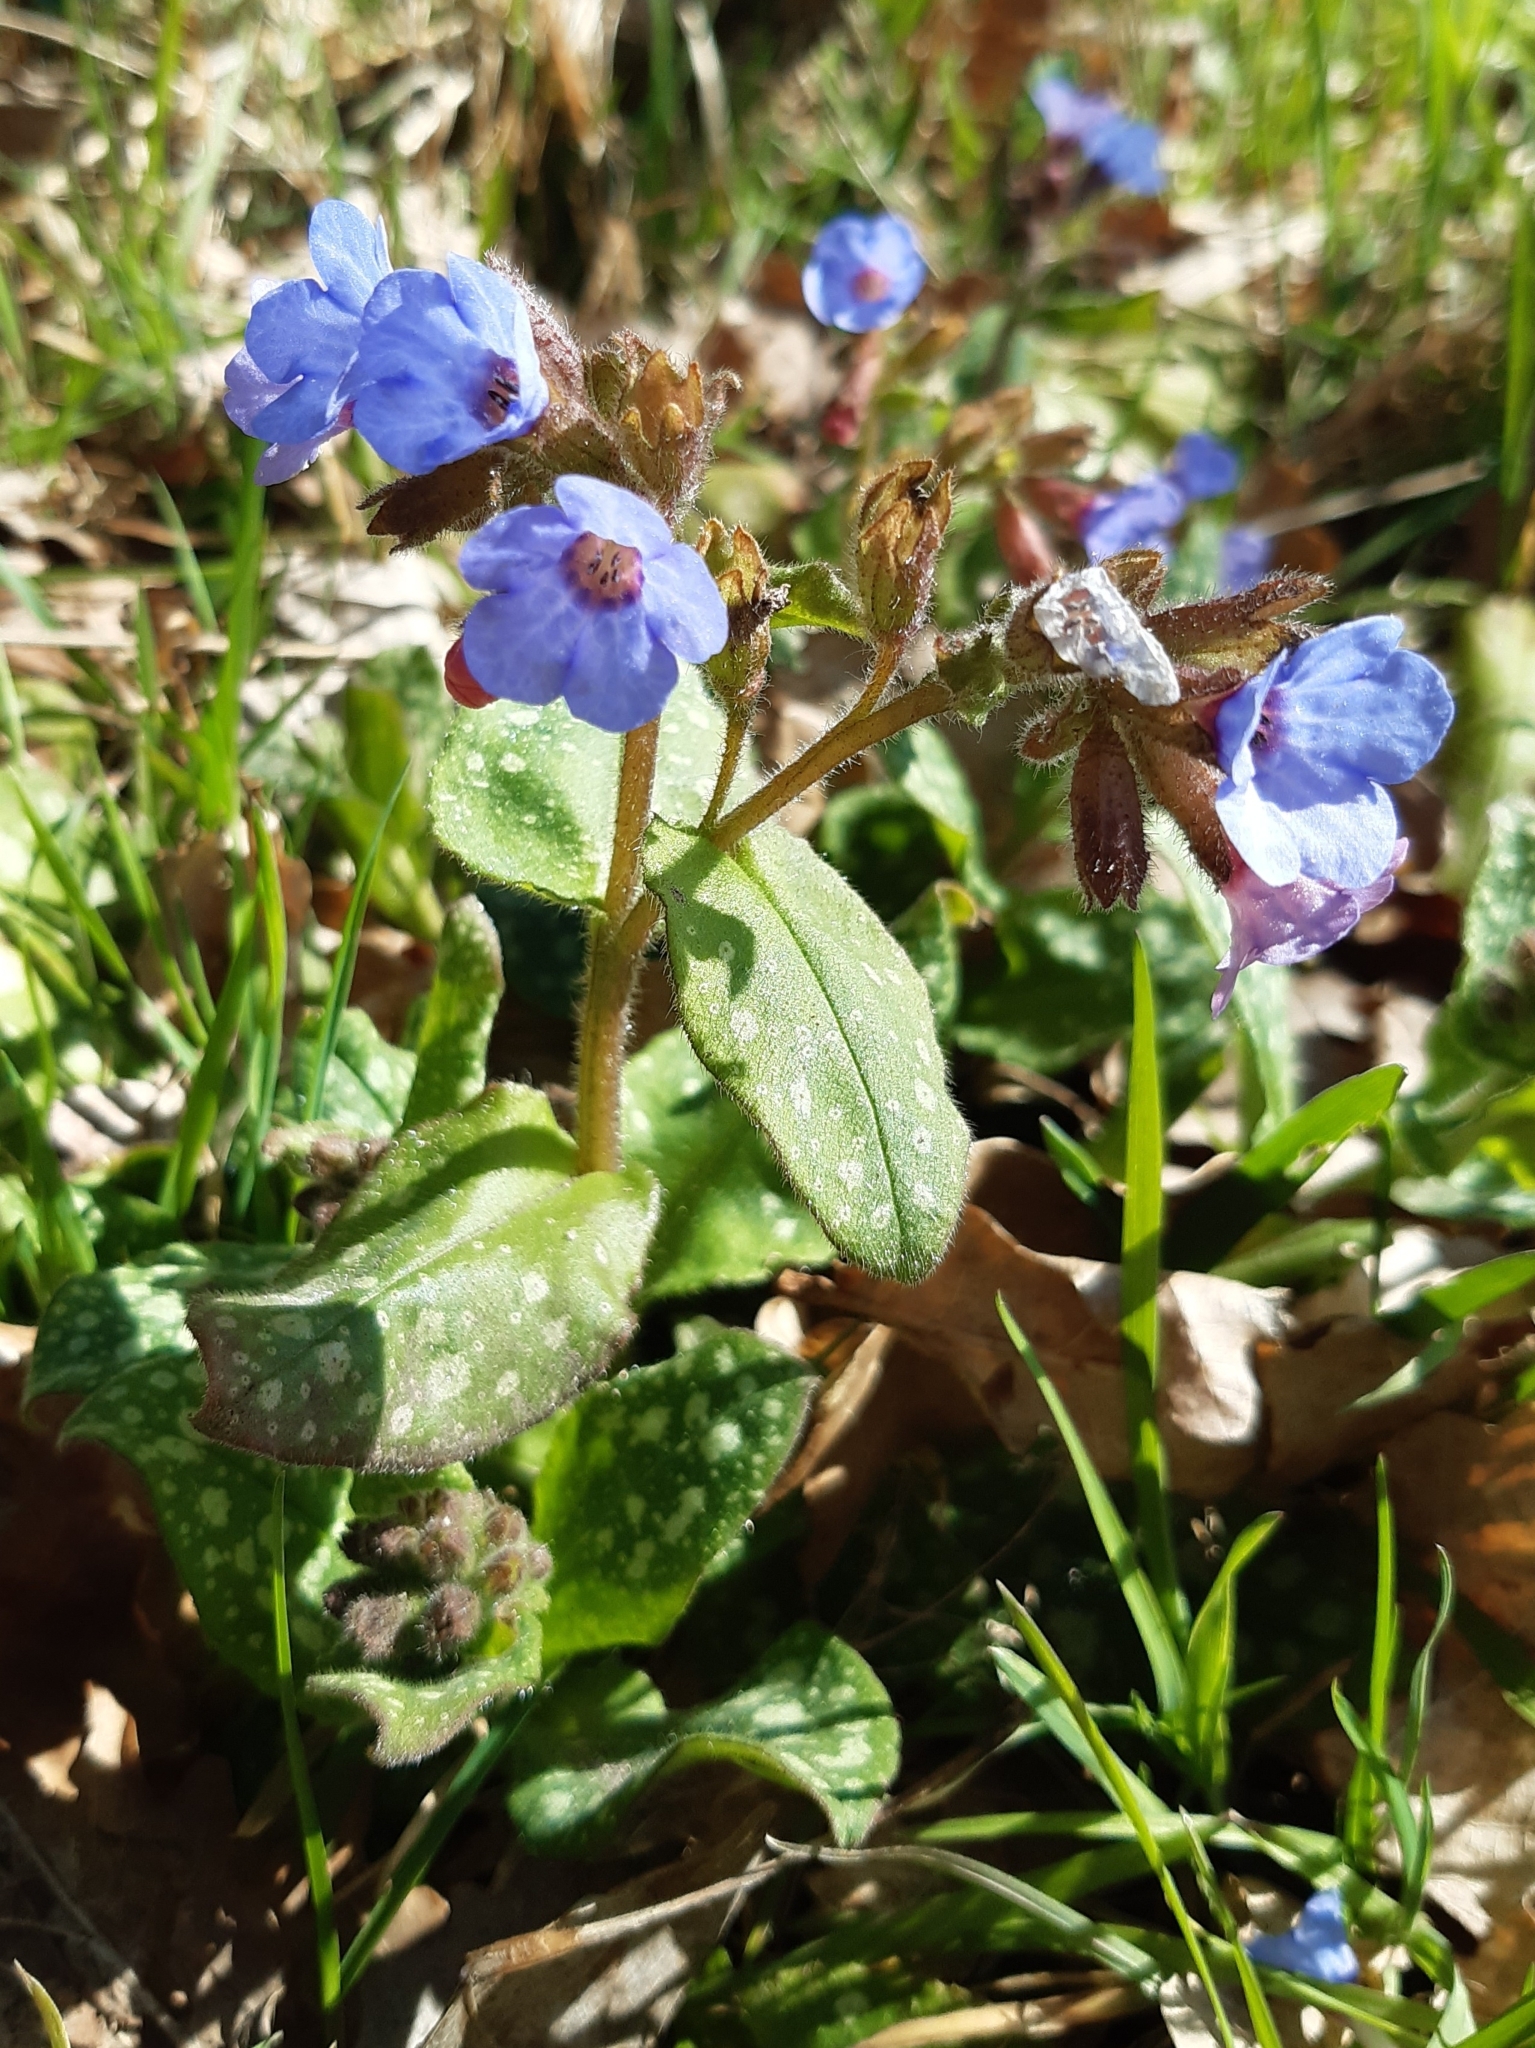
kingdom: Plantae
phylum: Tracheophyta
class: Magnoliopsida
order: Boraginales
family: Boraginaceae
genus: Pulmonaria
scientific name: Pulmonaria officinalis
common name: Lungwort
